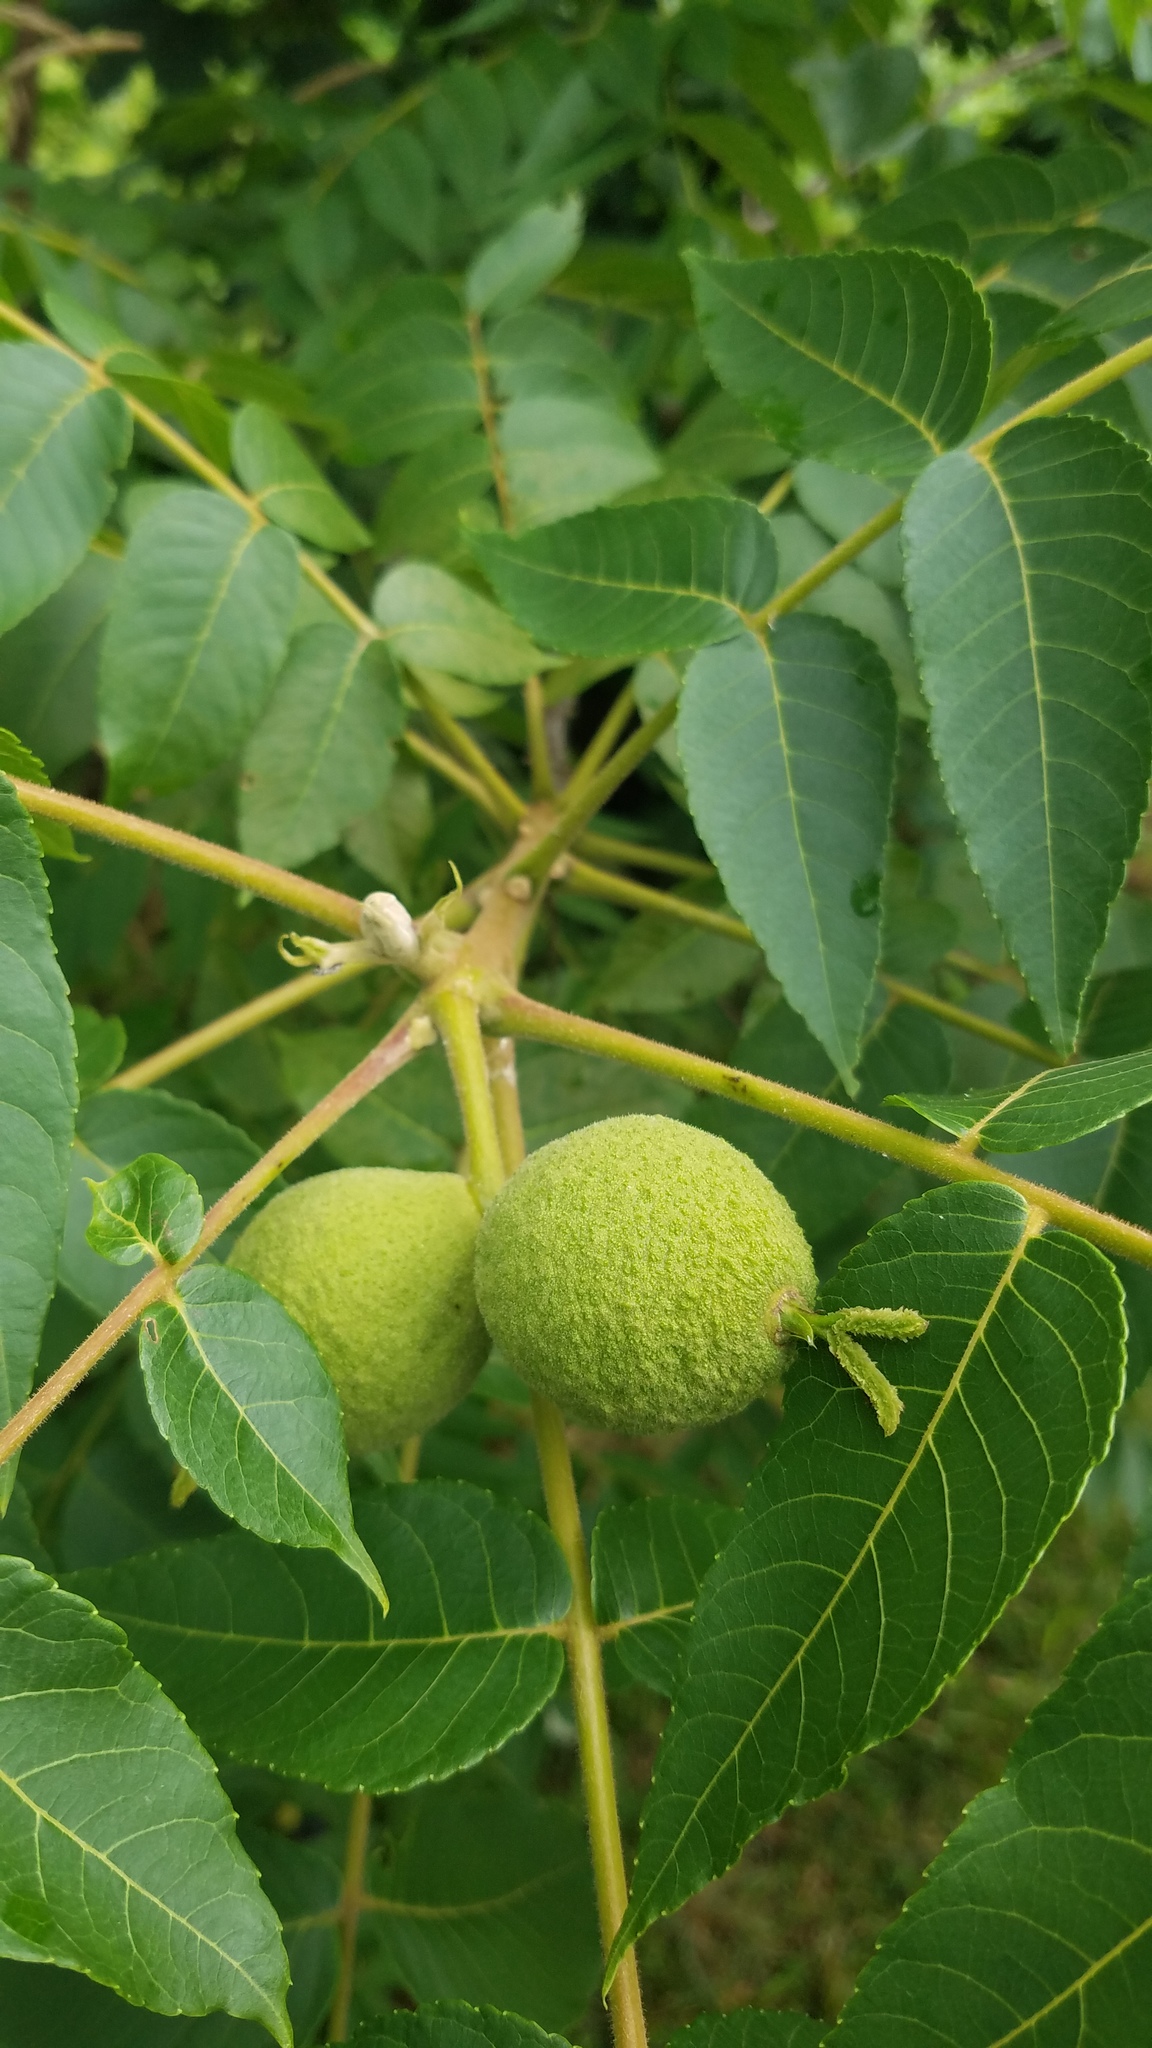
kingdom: Plantae
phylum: Tracheophyta
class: Magnoliopsida
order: Fagales
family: Juglandaceae
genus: Juglans
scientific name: Juglans nigra
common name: Black walnut
